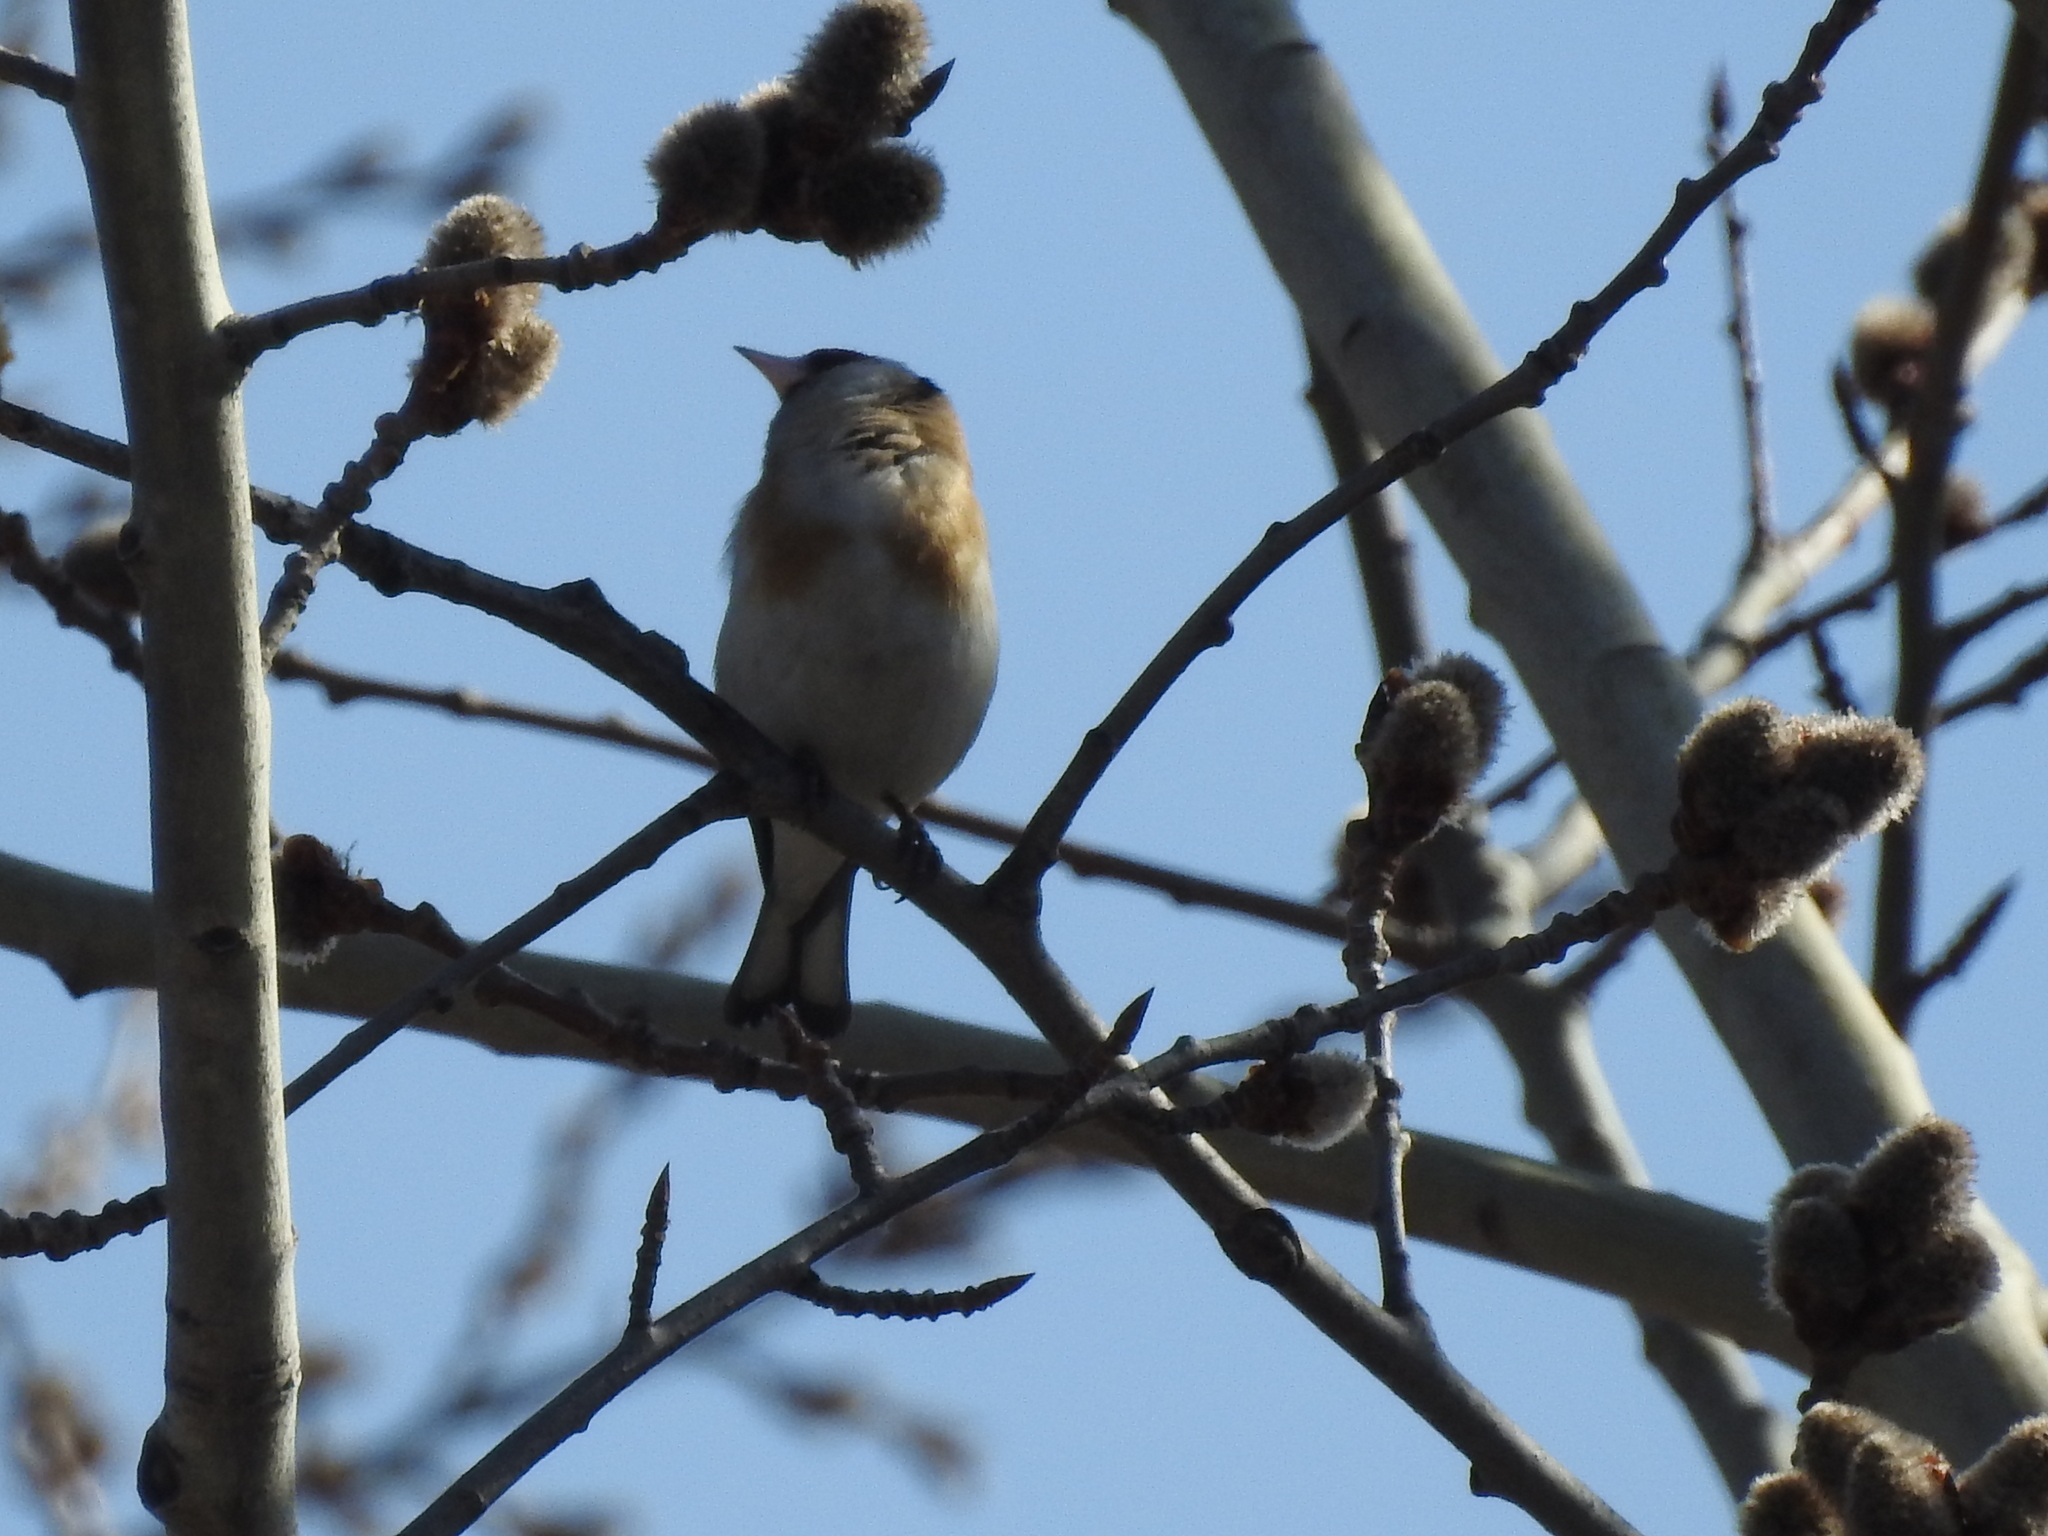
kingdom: Animalia
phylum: Chordata
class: Aves
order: Passeriformes
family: Fringillidae
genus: Carduelis
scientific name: Carduelis carduelis
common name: European goldfinch
